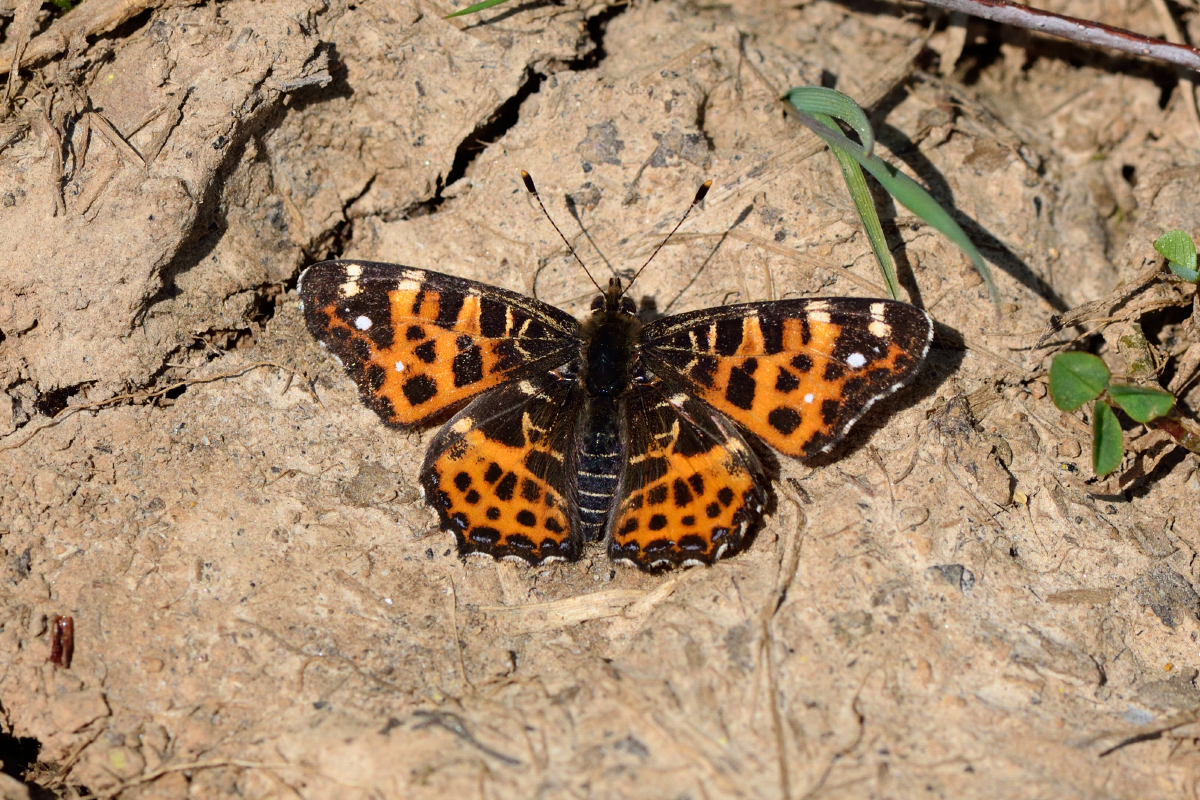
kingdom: Animalia
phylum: Arthropoda
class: Insecta
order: Lepidoptera
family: Nymphalidae
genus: Araschnia
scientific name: Araschnia levana
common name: Map butterfly
